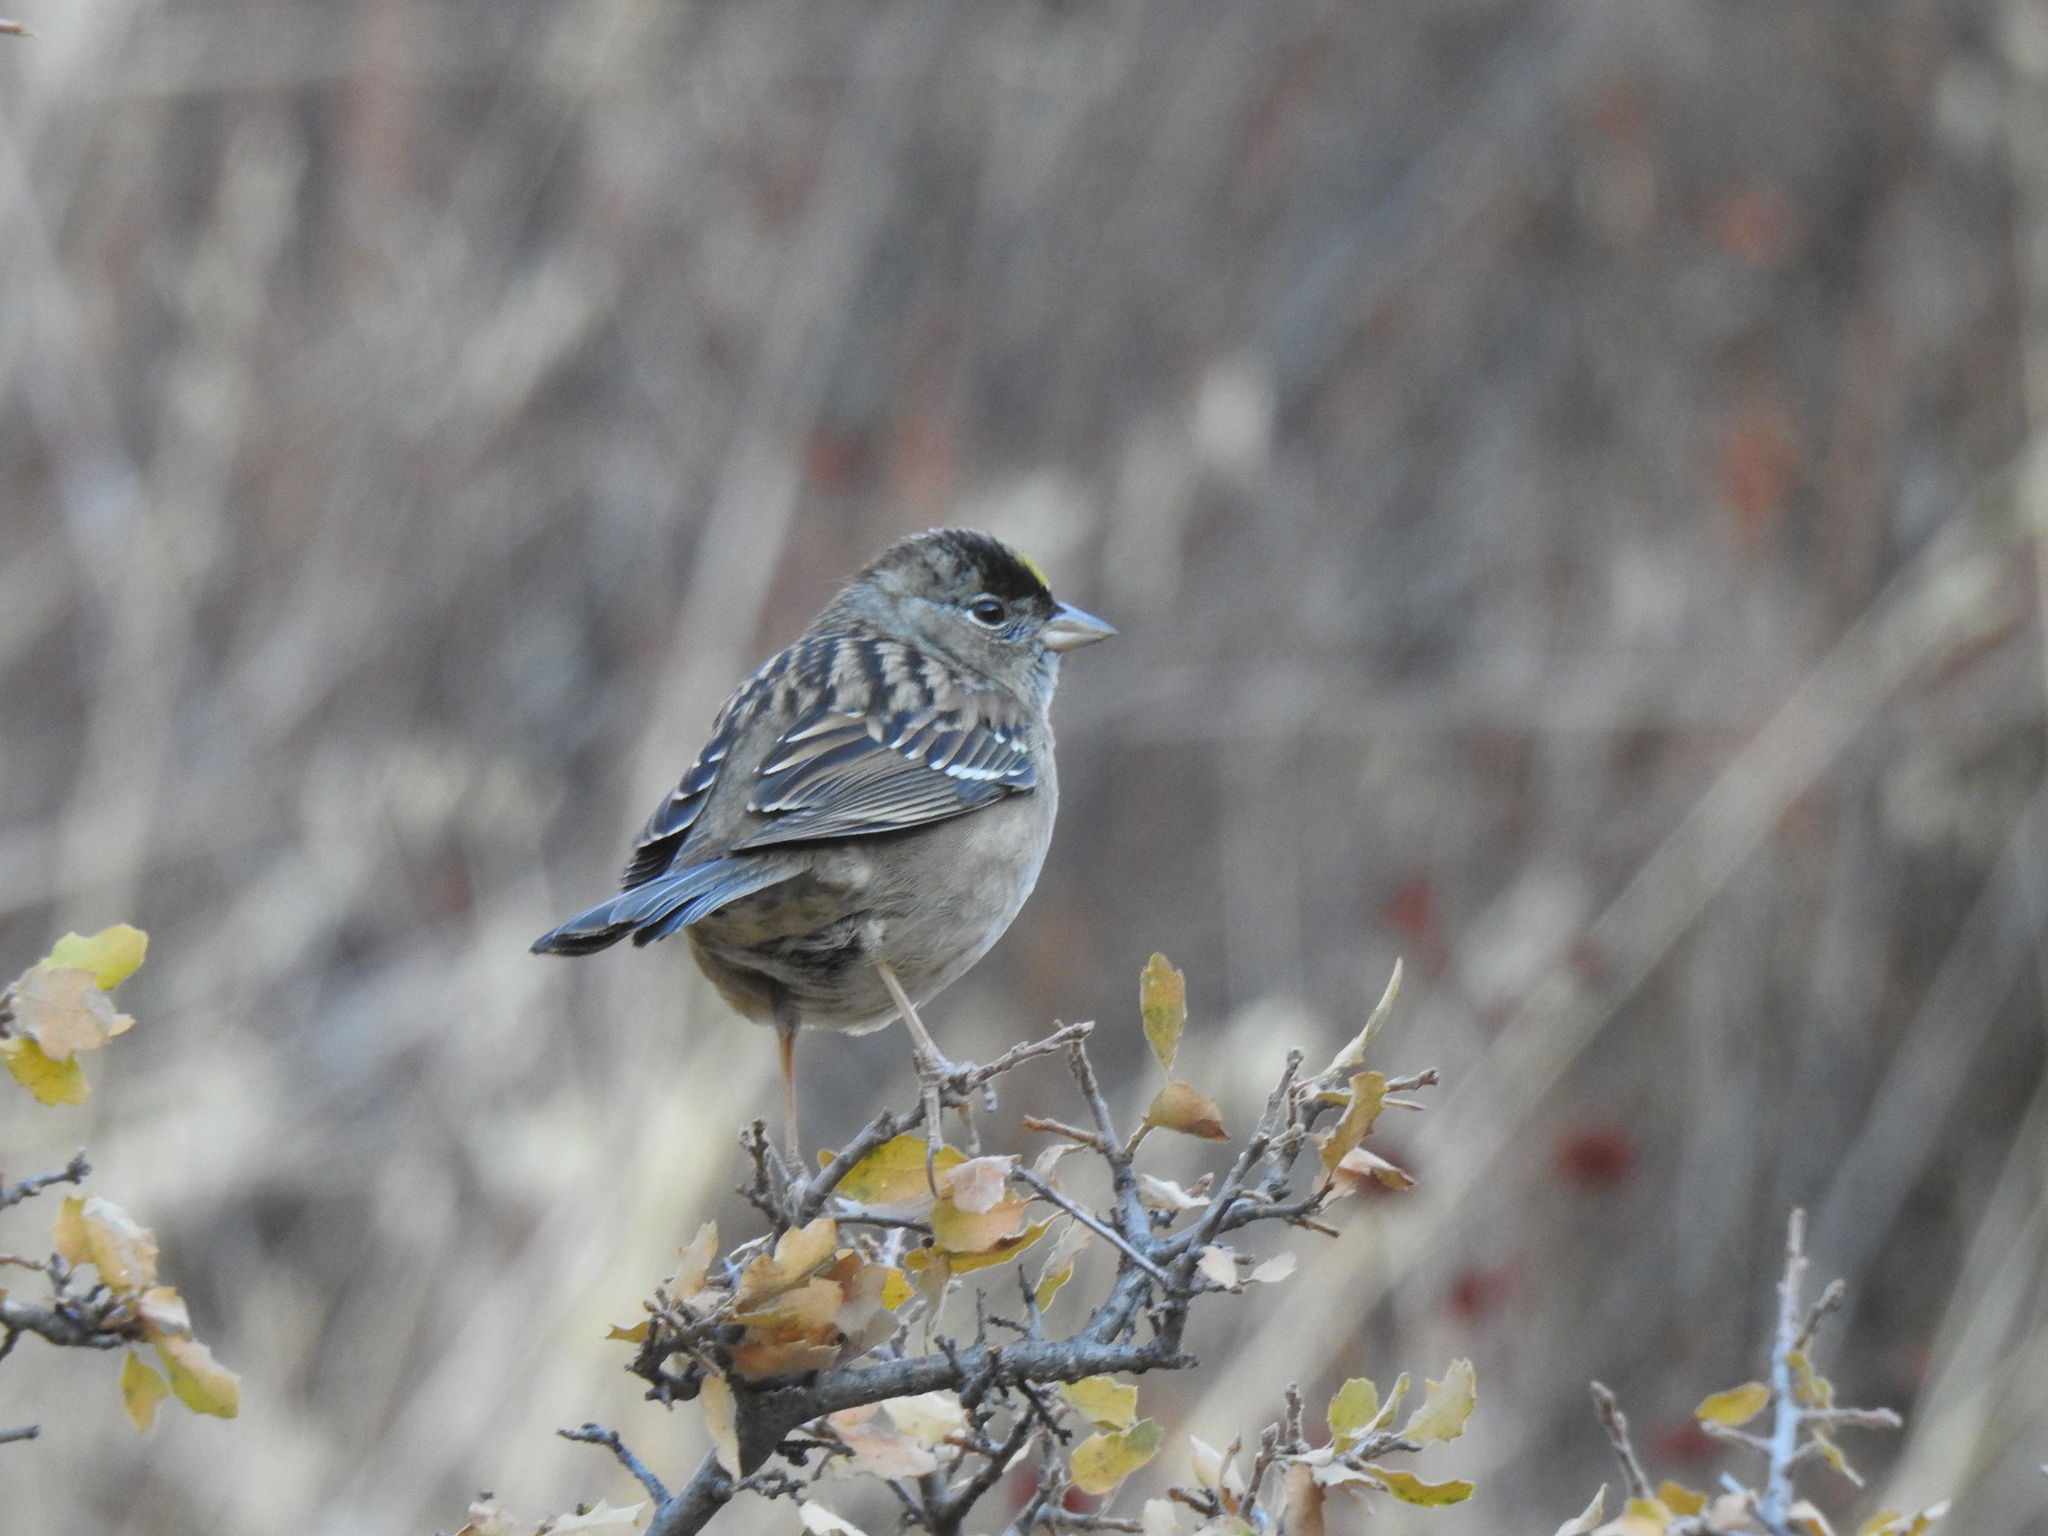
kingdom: Animalia
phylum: Chordata
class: Aves
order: Passeriformes
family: Passerellidae
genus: Zonotrichia
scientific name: Zonotrichia atricapilla
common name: Golden-crowned sparrow
